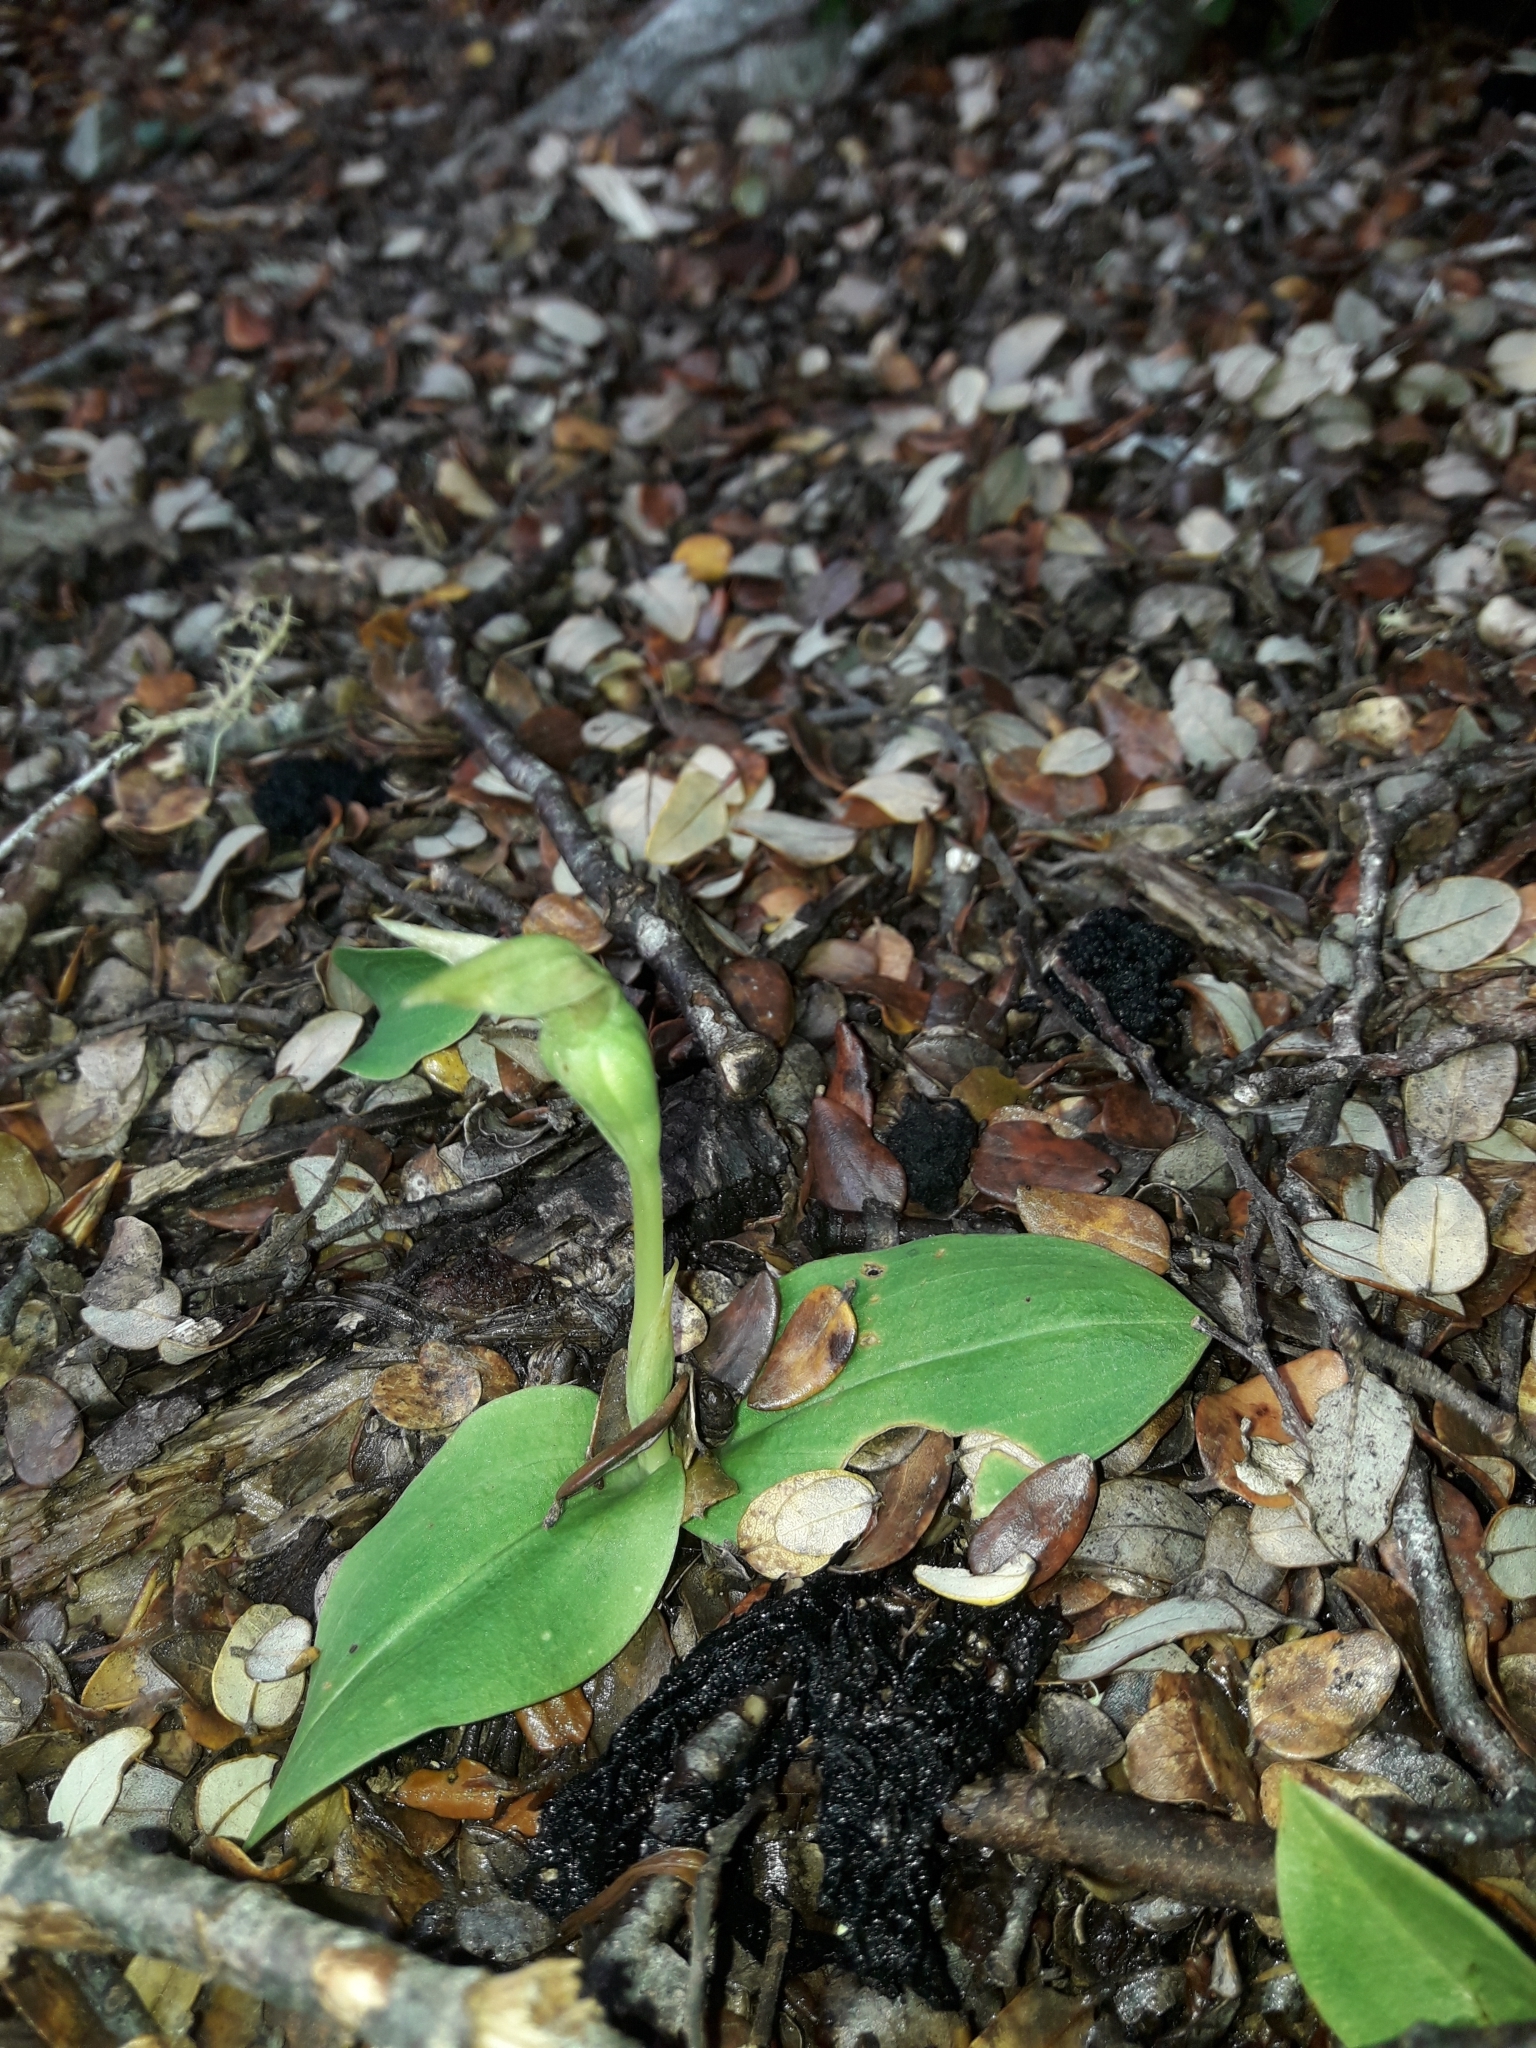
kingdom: Plantae
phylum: Tracheophyta
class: Liliopsida
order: Asparagales
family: Orchidaceae
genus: Chiloglottis
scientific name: Chiloglottis cornuta
